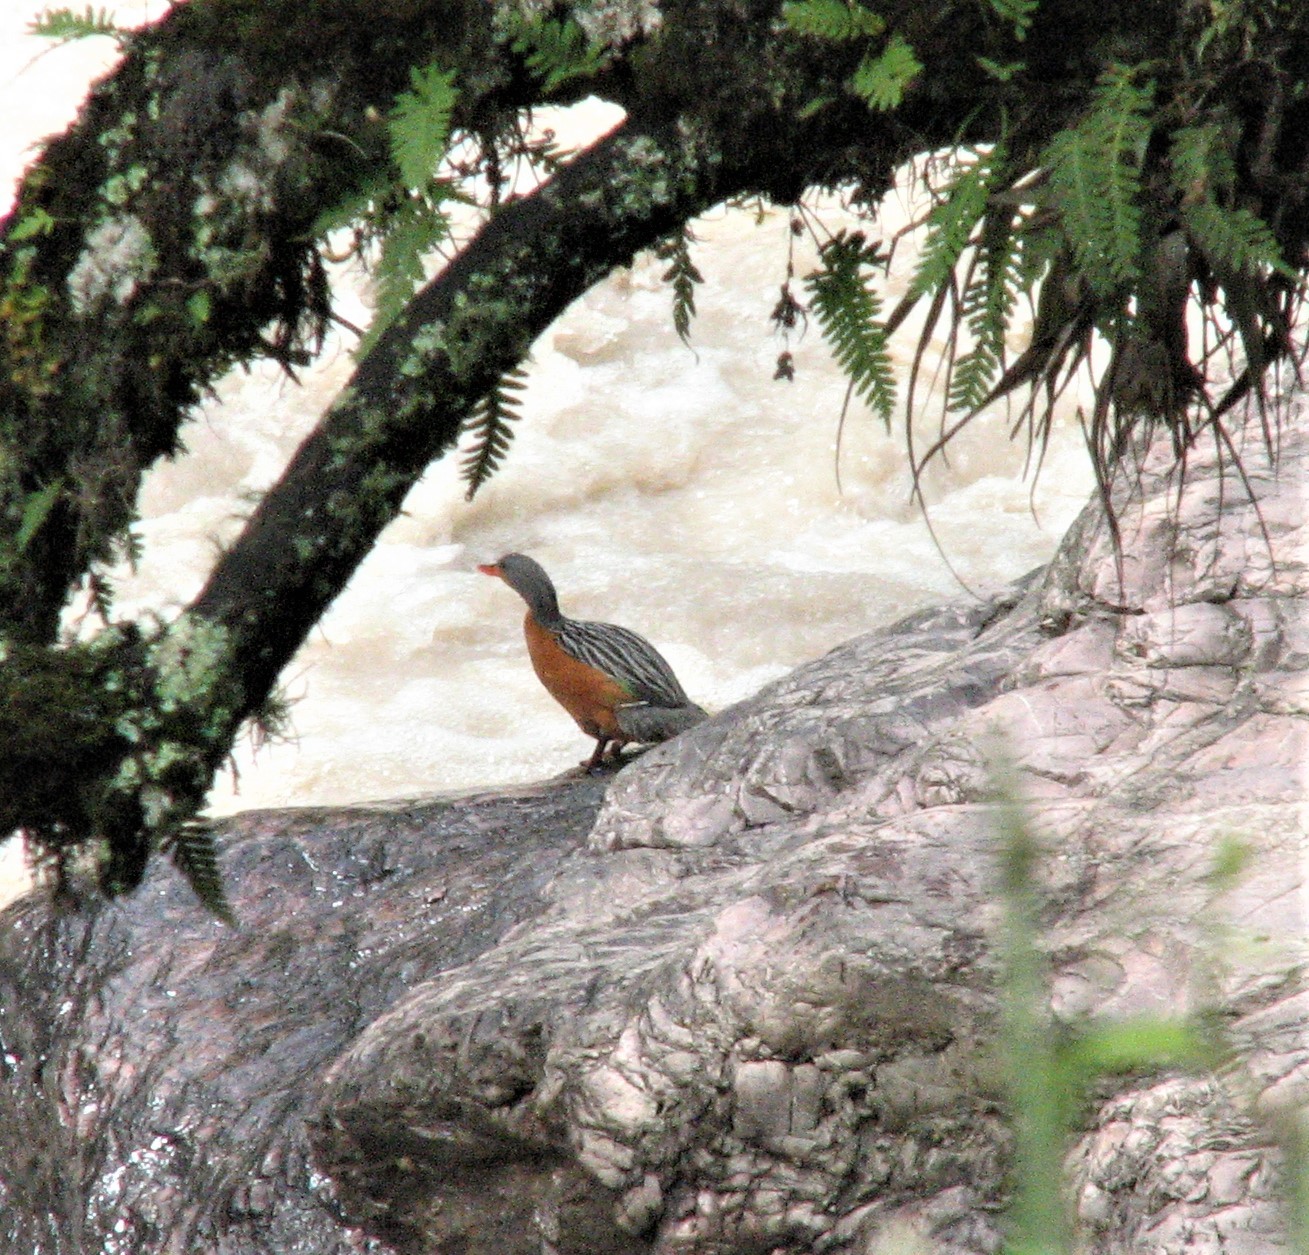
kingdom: Animalia
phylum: Chordata
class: Aves
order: Anseriformes
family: Anatidae
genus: Merganetta
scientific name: Merganetta armata
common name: Torrent duck
